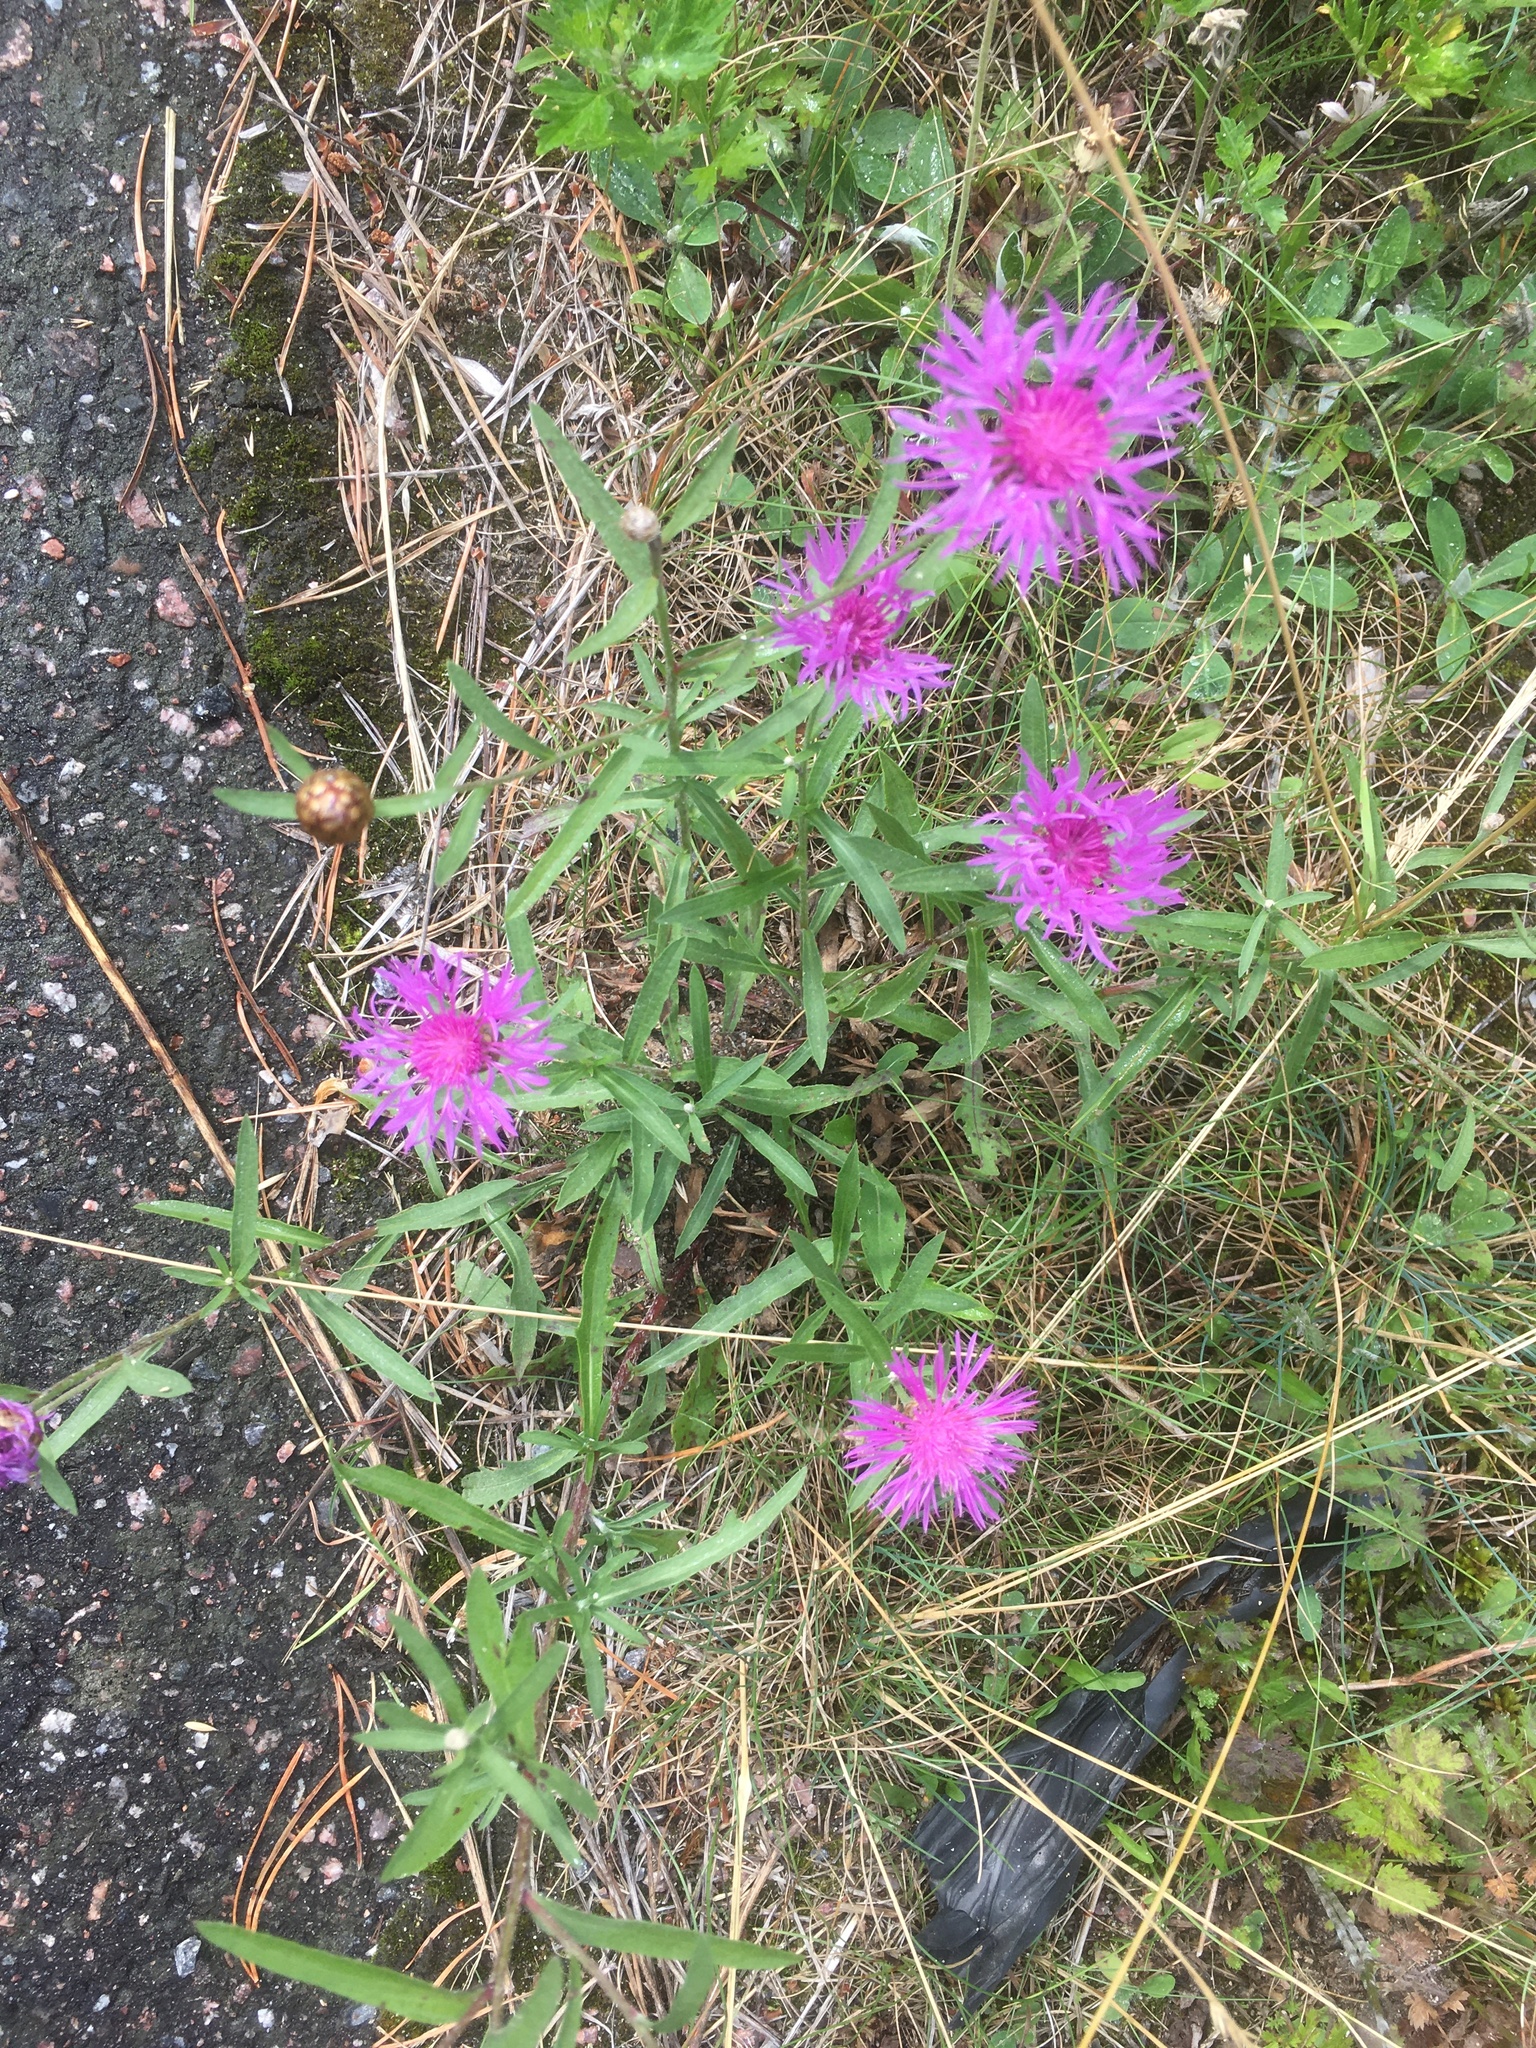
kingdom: Plantae
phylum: Tracheophyta
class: Magnoliopsida
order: Asterales
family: Asteraceae
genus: Centaurea
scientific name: Centaurea jacea
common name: Brown knapweed
